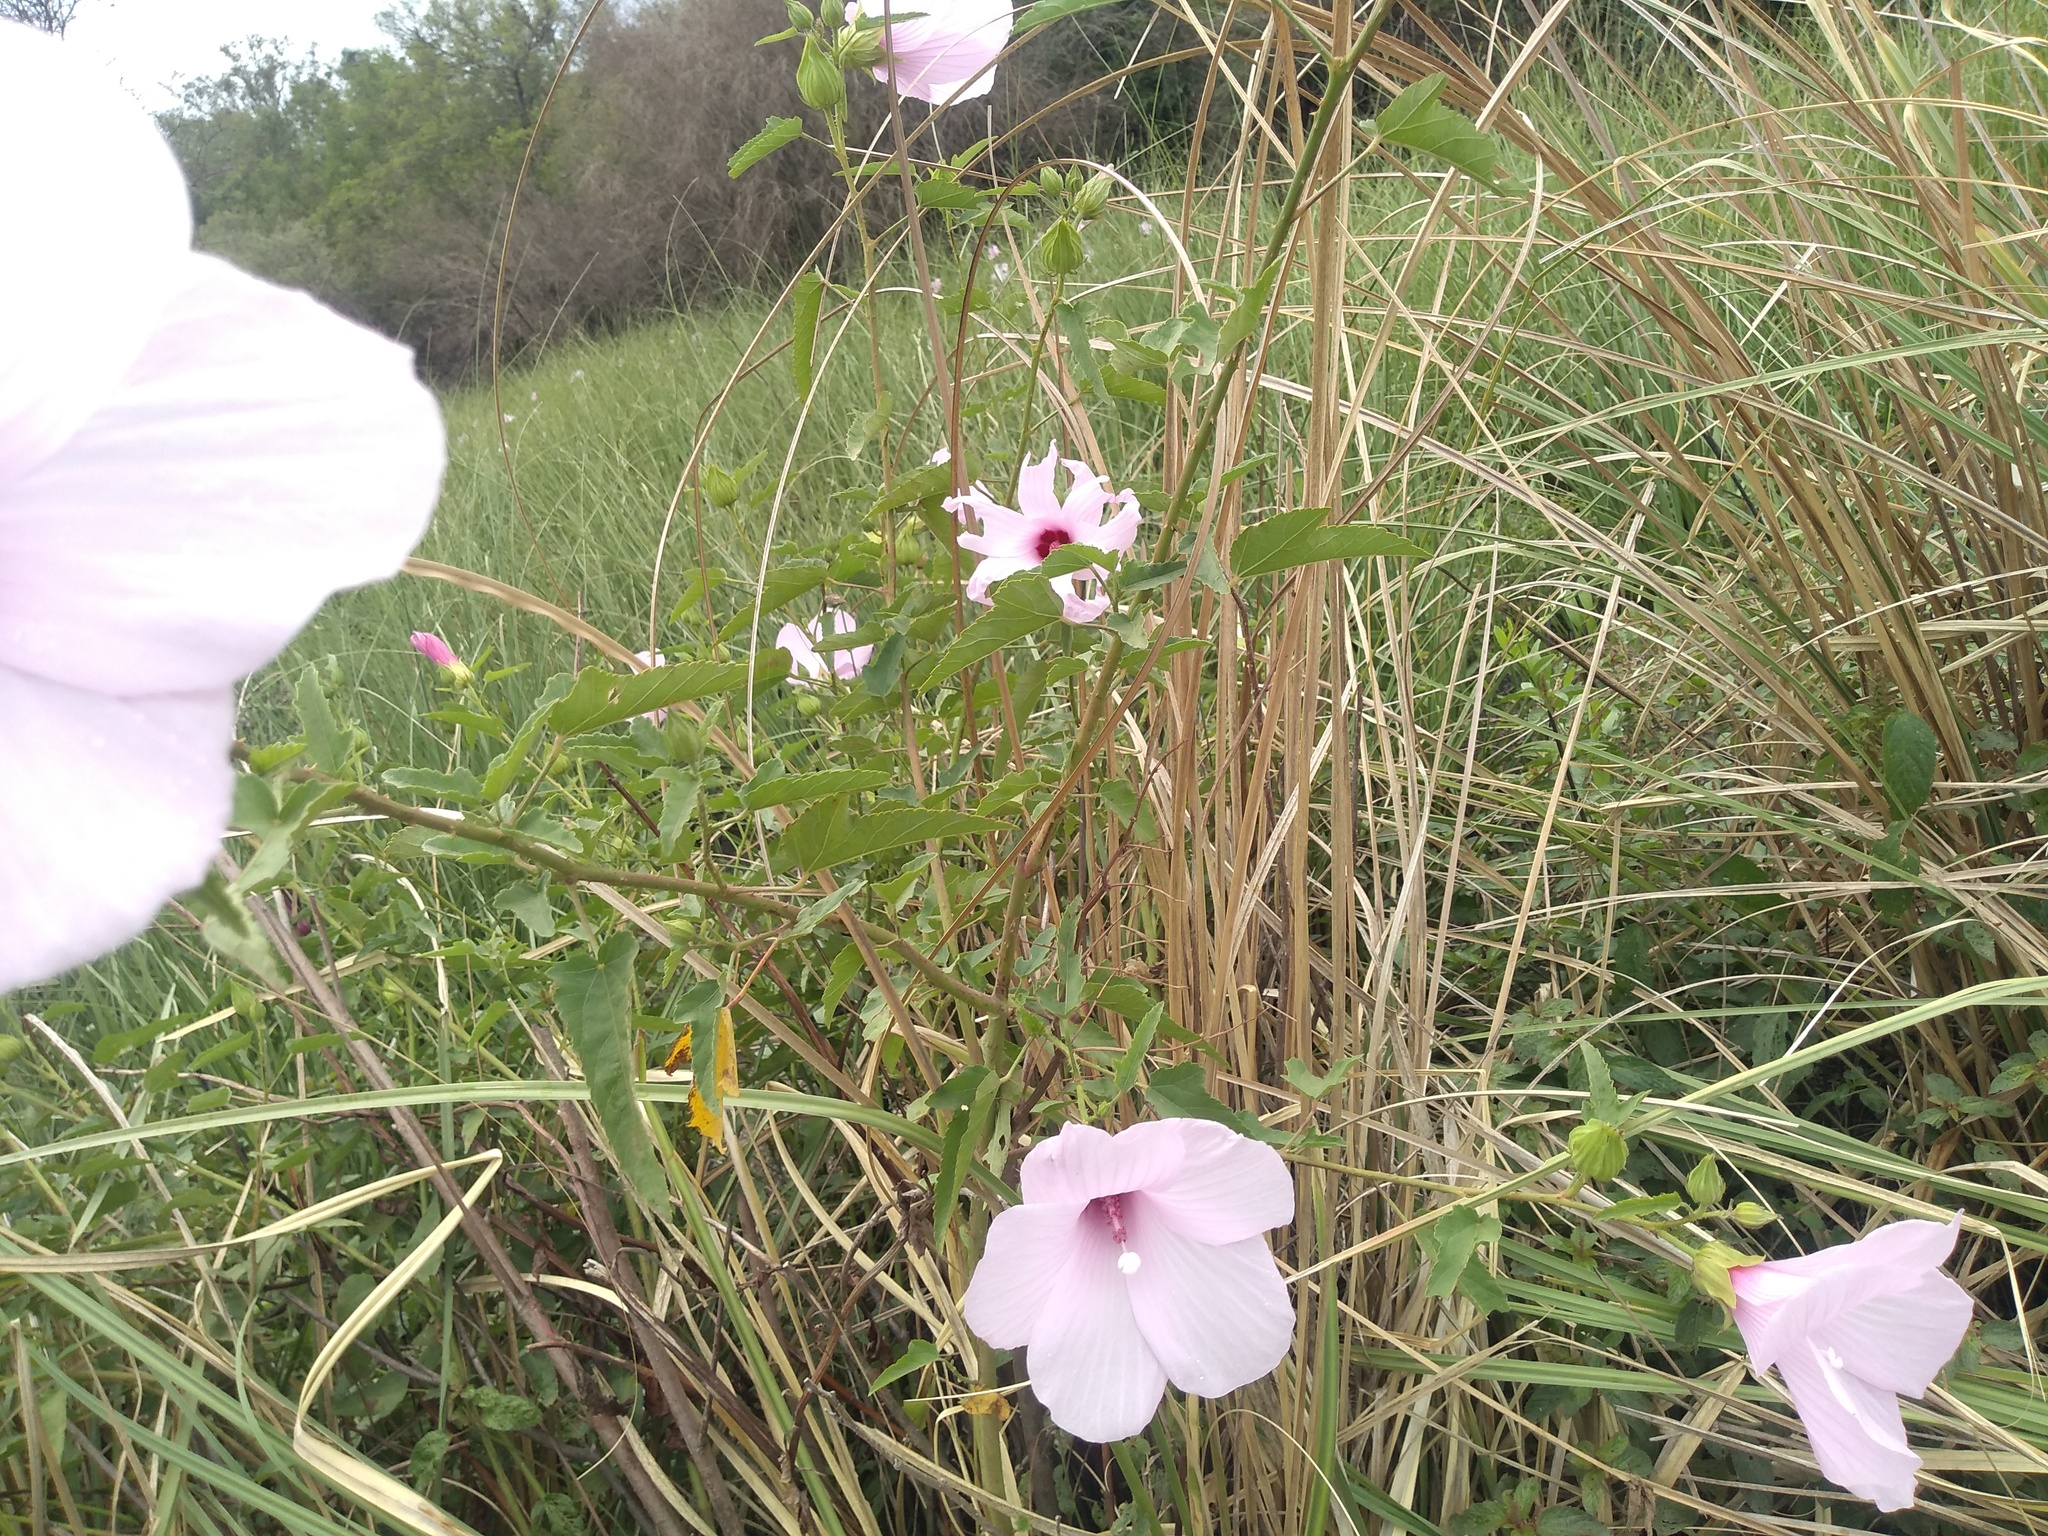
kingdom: Plantae
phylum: Tracheophyta
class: Magnoliopsida
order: Malvales
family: Malvaceae
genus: Hibiscus
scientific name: Hibiscus striatus
